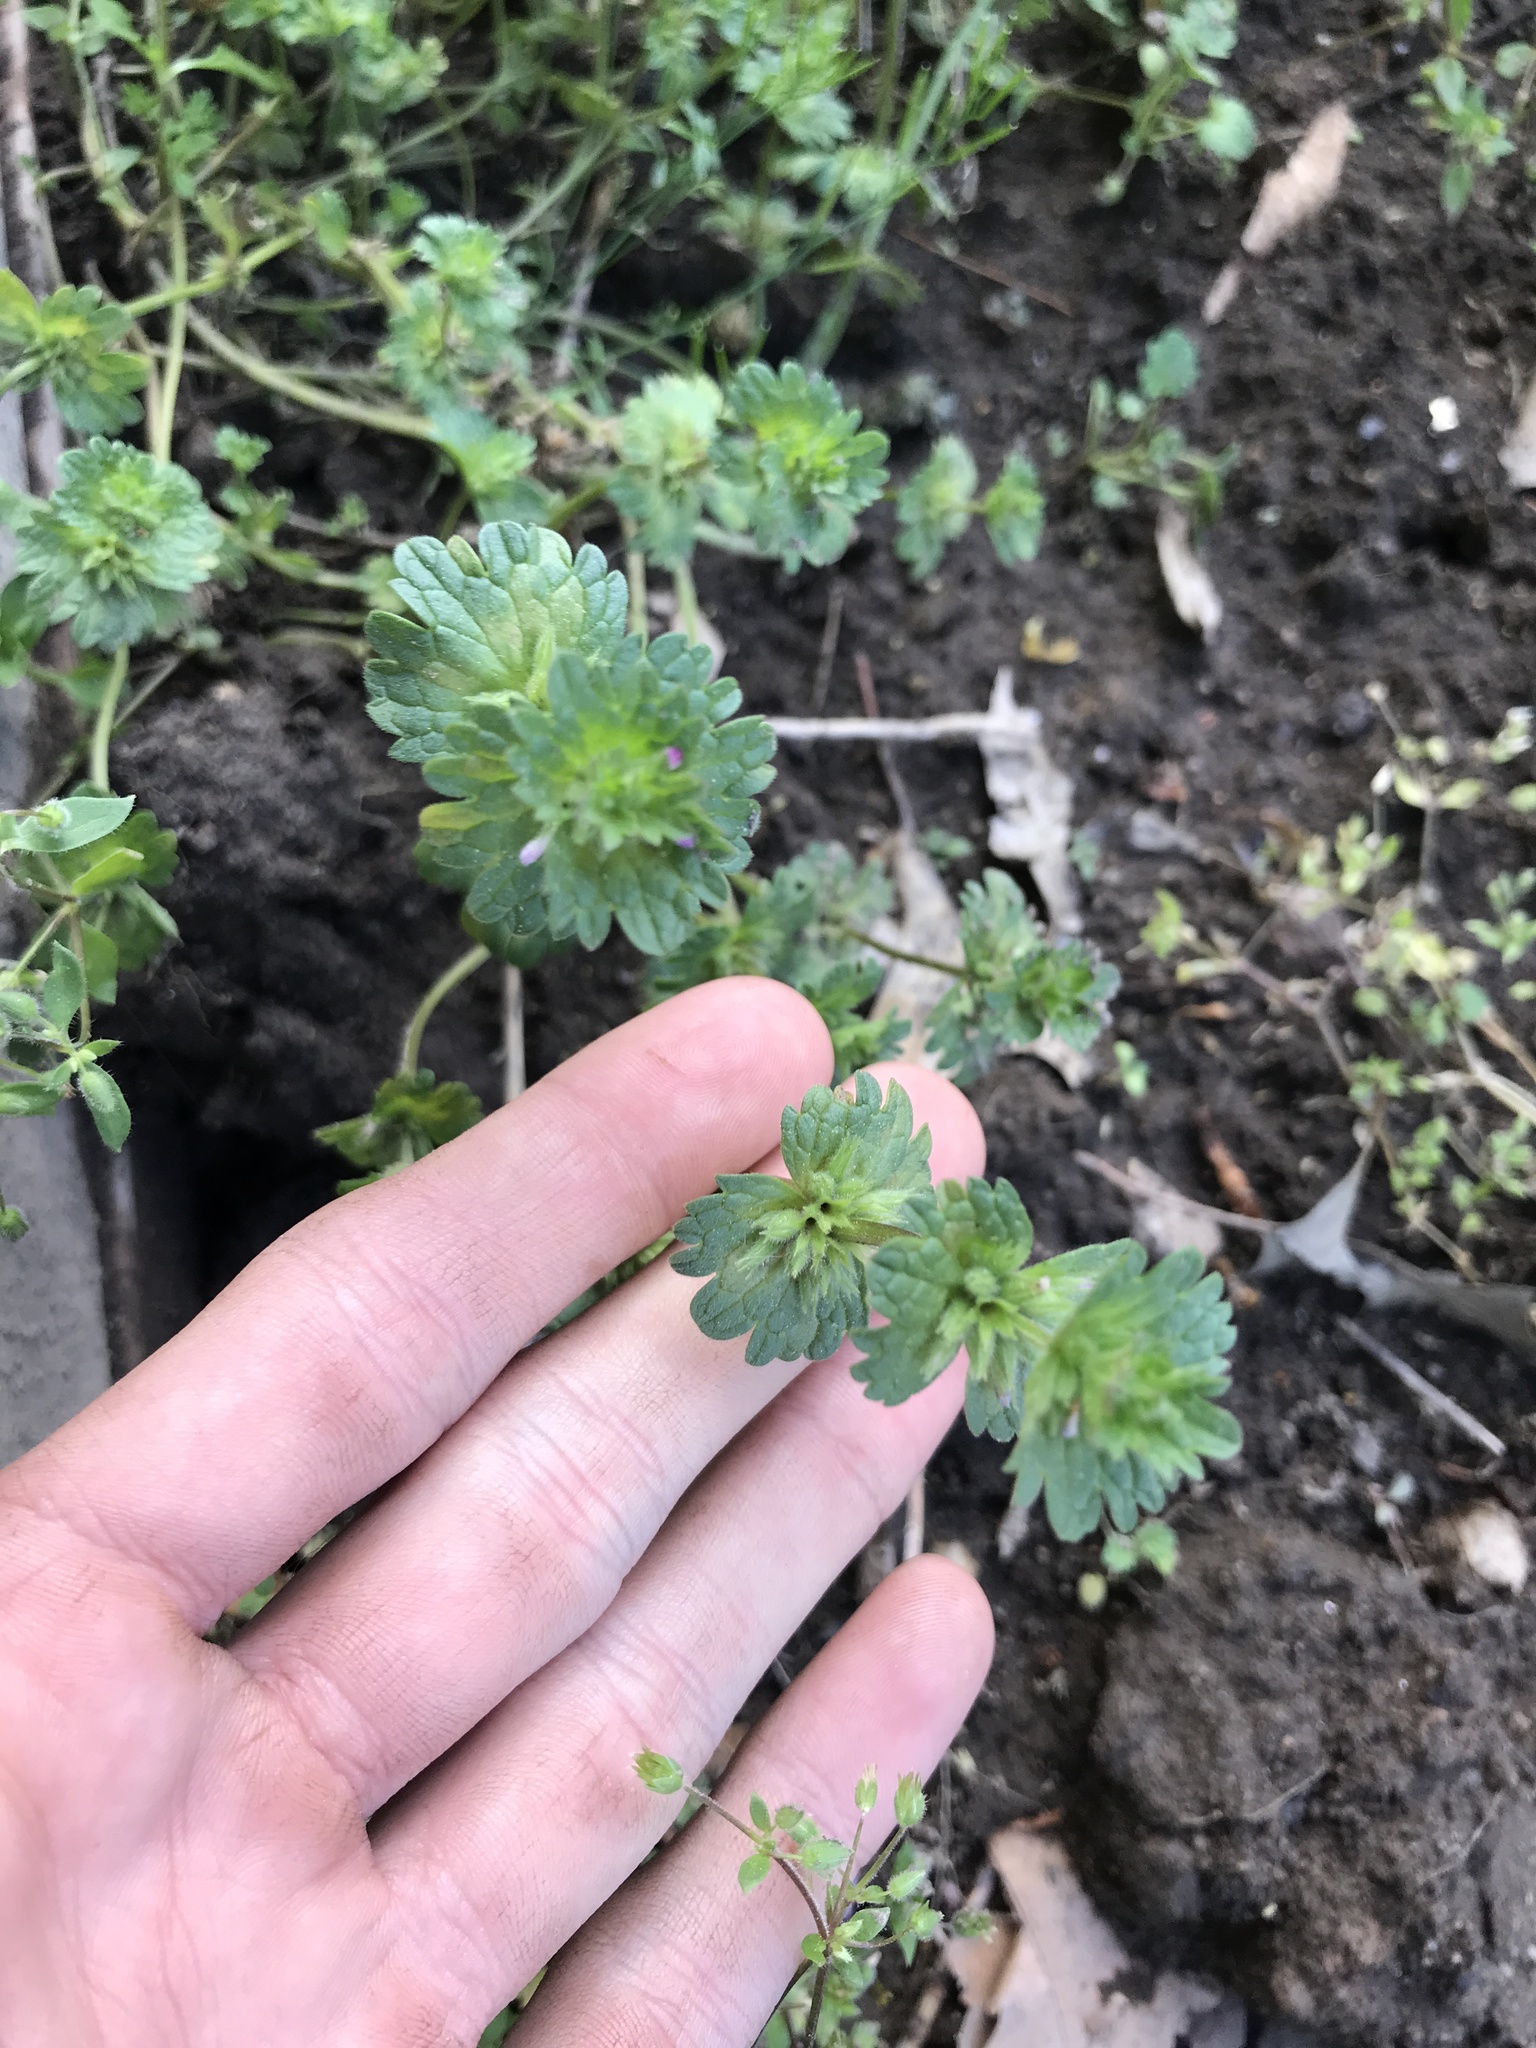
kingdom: Plantae
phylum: Tracheophyta
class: Magnoliopsida
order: Lamiales
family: Lamiaceae
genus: Lamium
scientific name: Lamium amplexicaule
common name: Henbit dead-nettle
